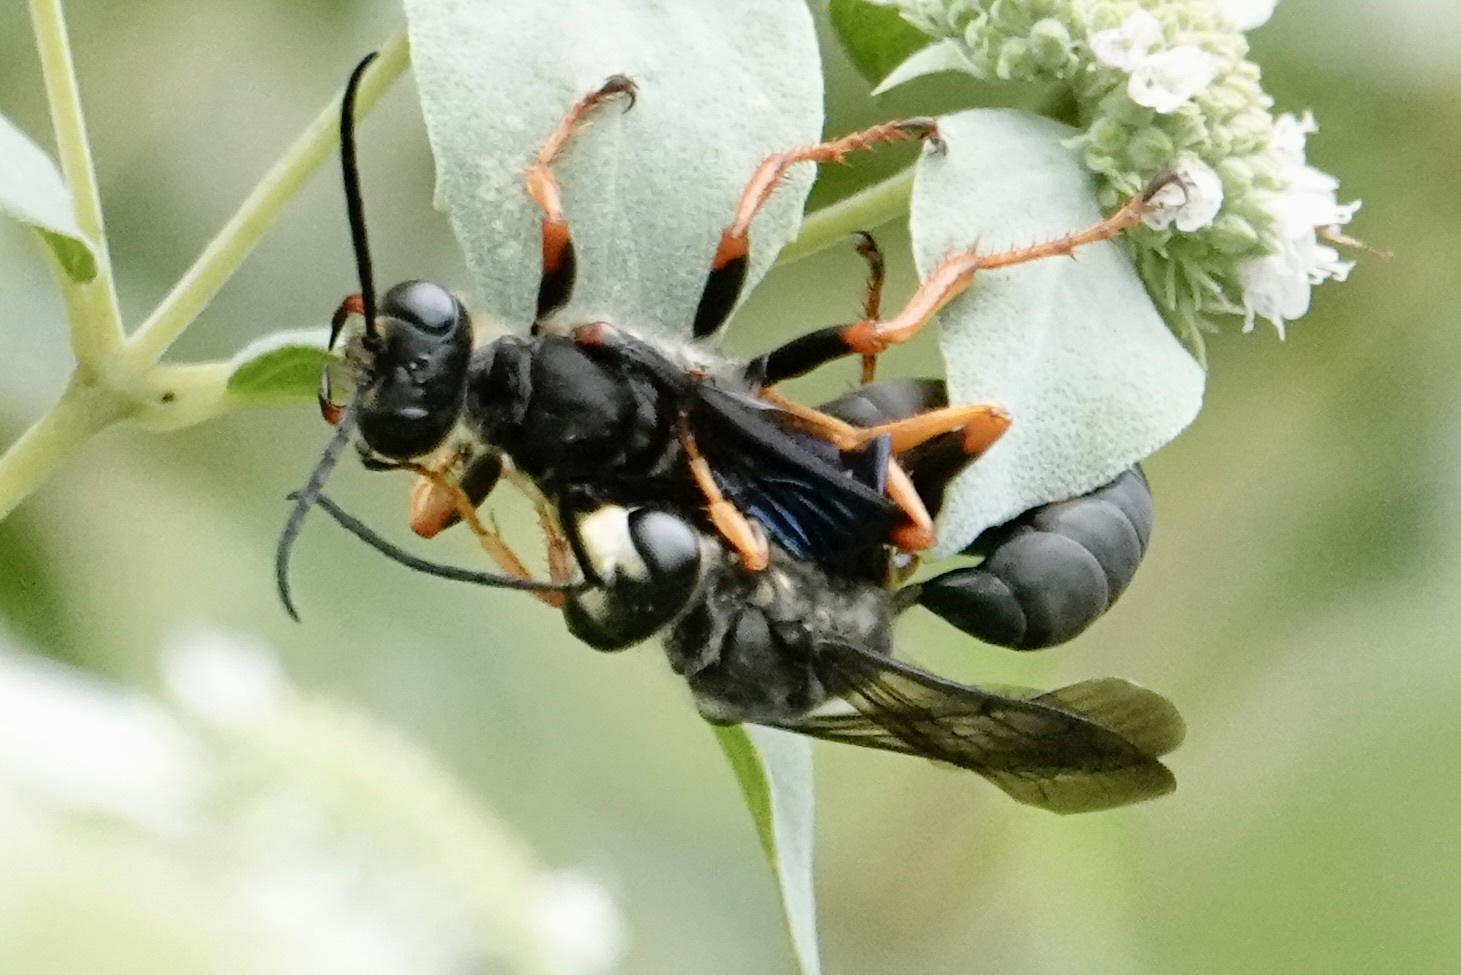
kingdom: Animalia
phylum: Arthropoda
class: Insecta
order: Hymenoptera
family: Sphecidae
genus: Sphex
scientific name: Sphex nudus
